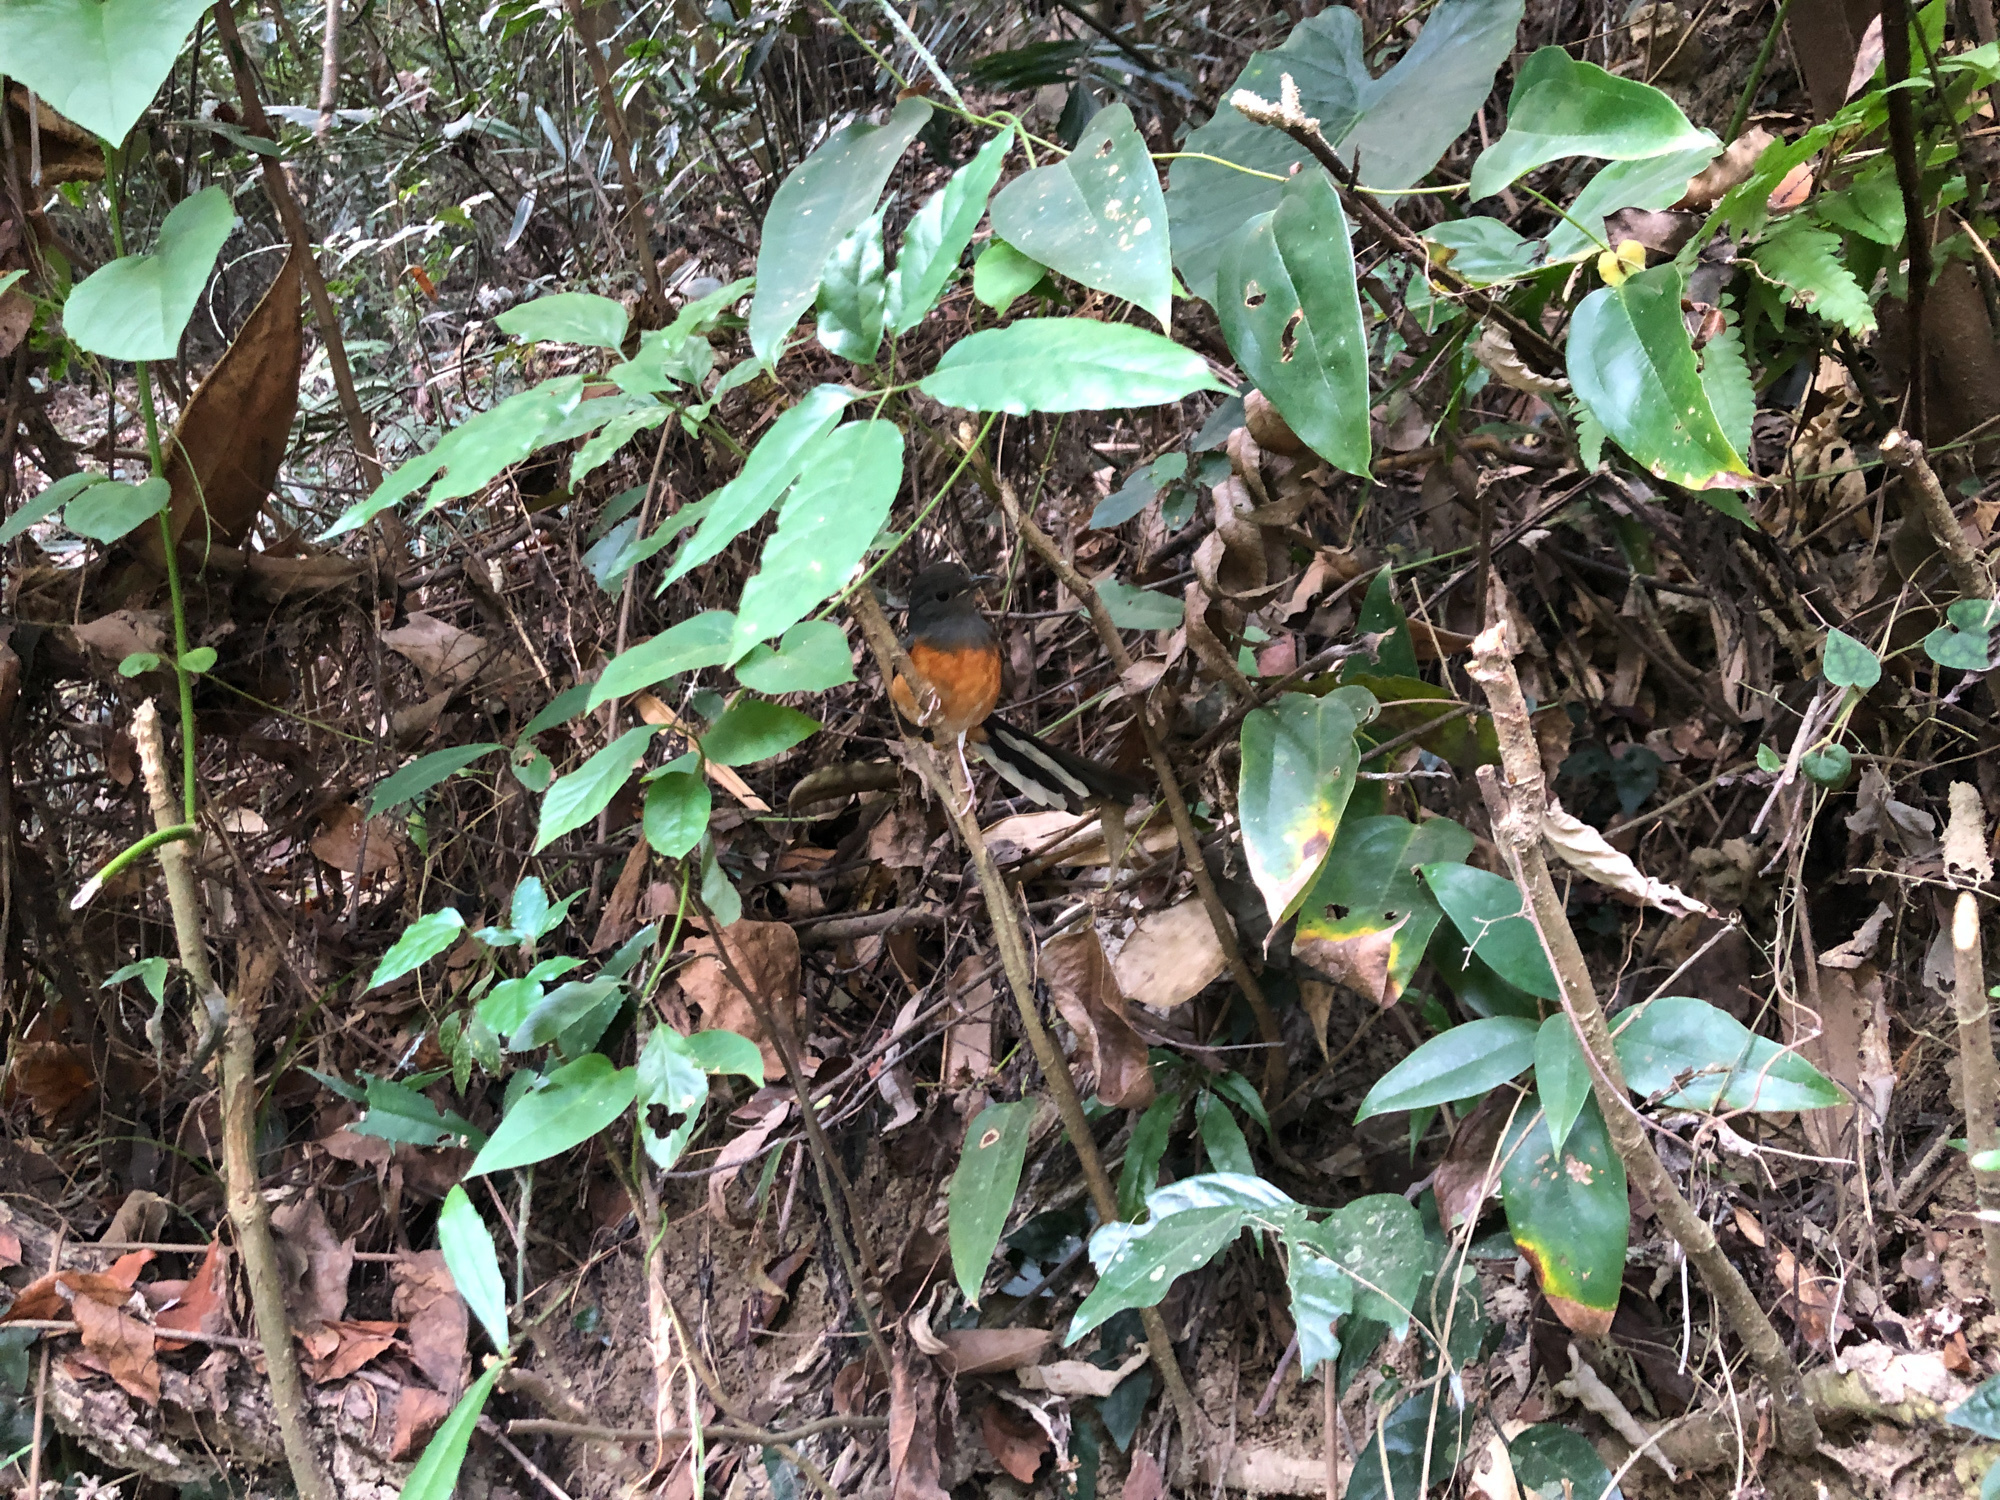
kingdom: Animalia
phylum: Chordata
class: Aves
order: Passeriformes
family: Muscicapidae
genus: Copsychus
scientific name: Copsychus malabaricus
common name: White-rumped shama
